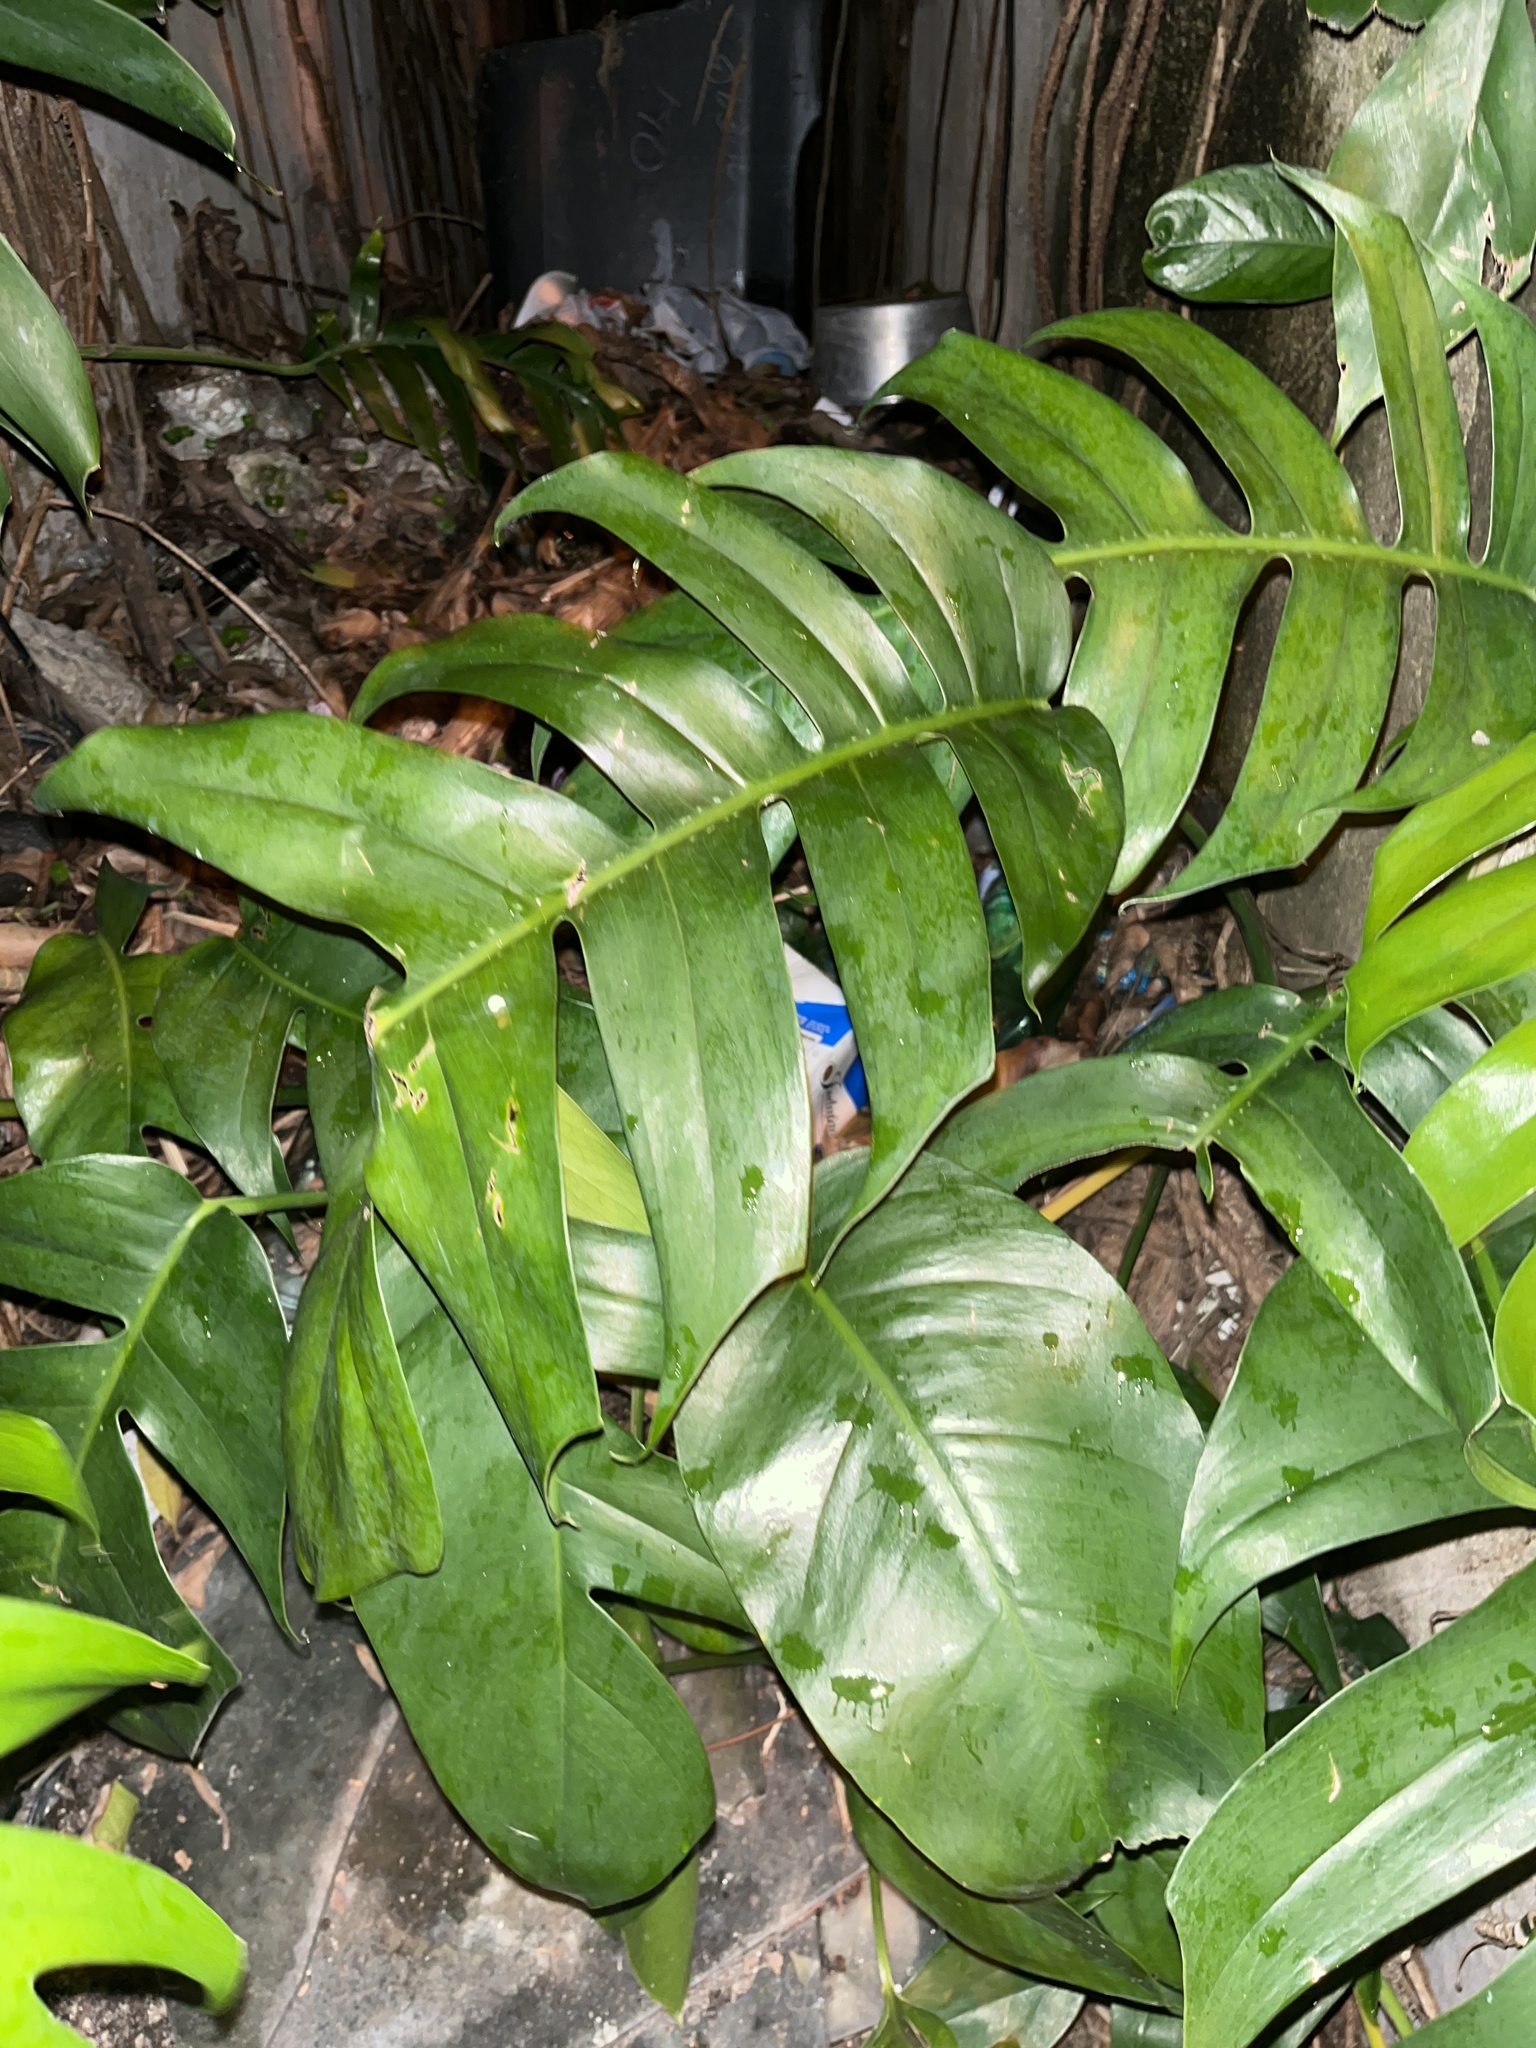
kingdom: Plantae
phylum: Tracheophyta
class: Liliopsida
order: Alismatales
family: Araceae
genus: Epipremnum
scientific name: Epipremnum pinnatum
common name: Centipede tongavine
